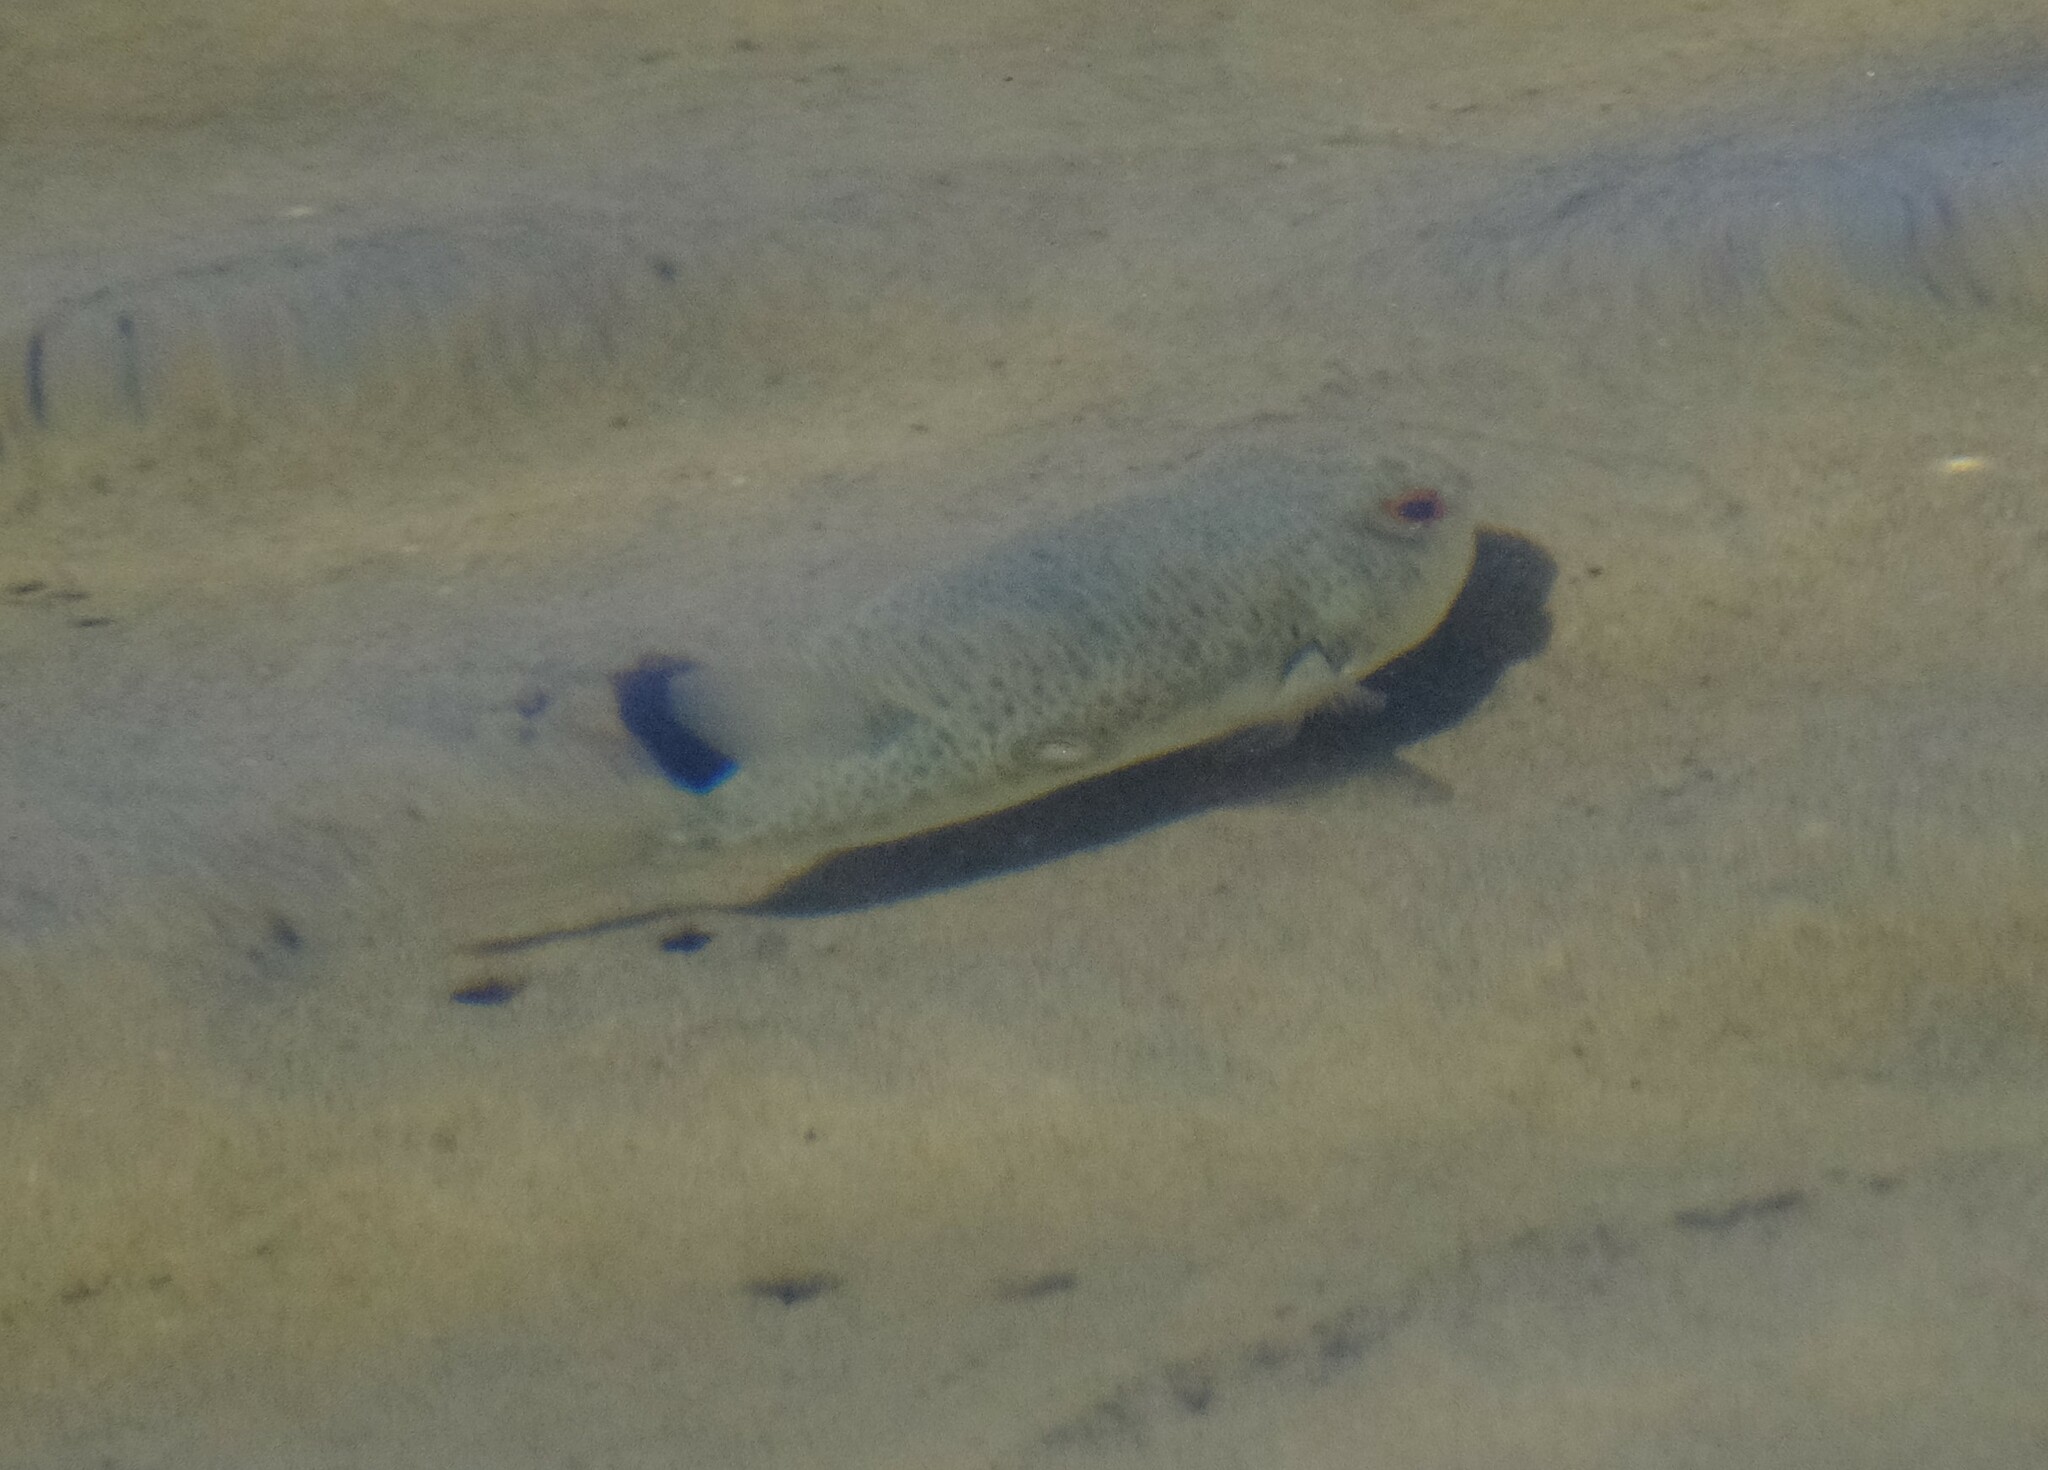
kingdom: Animalia
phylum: Chordata
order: Tetraodontiformes
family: Tetraodontidae
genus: Tetractenos
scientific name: Tetractenos hamiltoni
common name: Common toadfish
